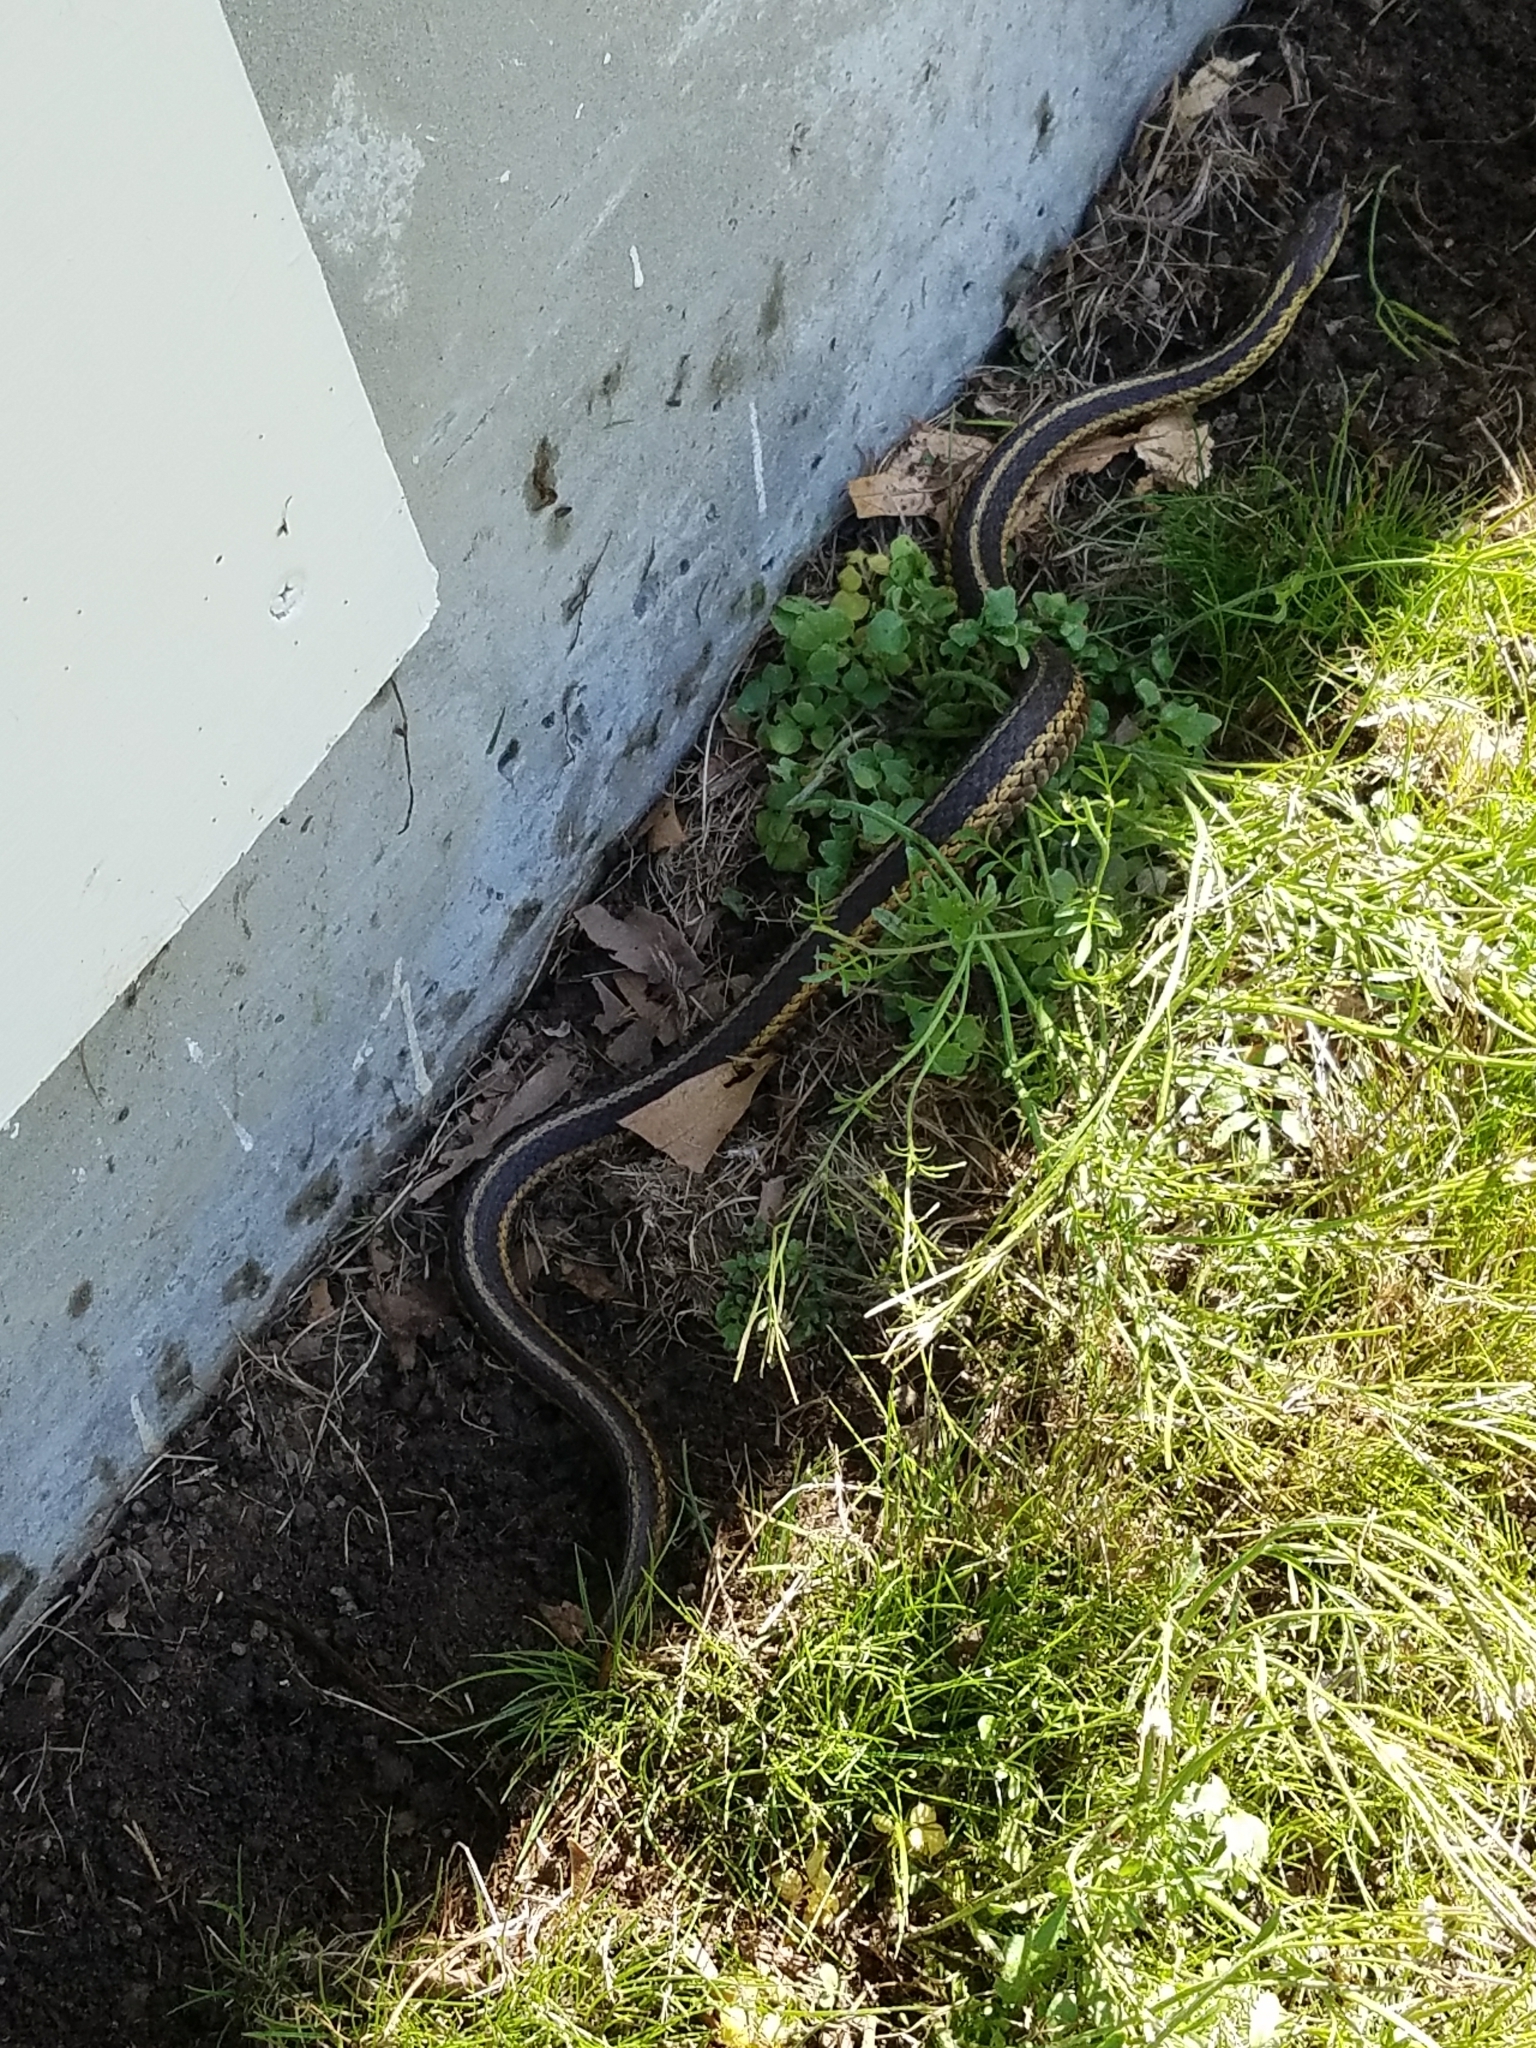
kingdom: Animalia
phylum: Chordata
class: Squamata
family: Colubridae
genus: Thamnophis
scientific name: Thamnophis sirtalis
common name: Common garter snake
